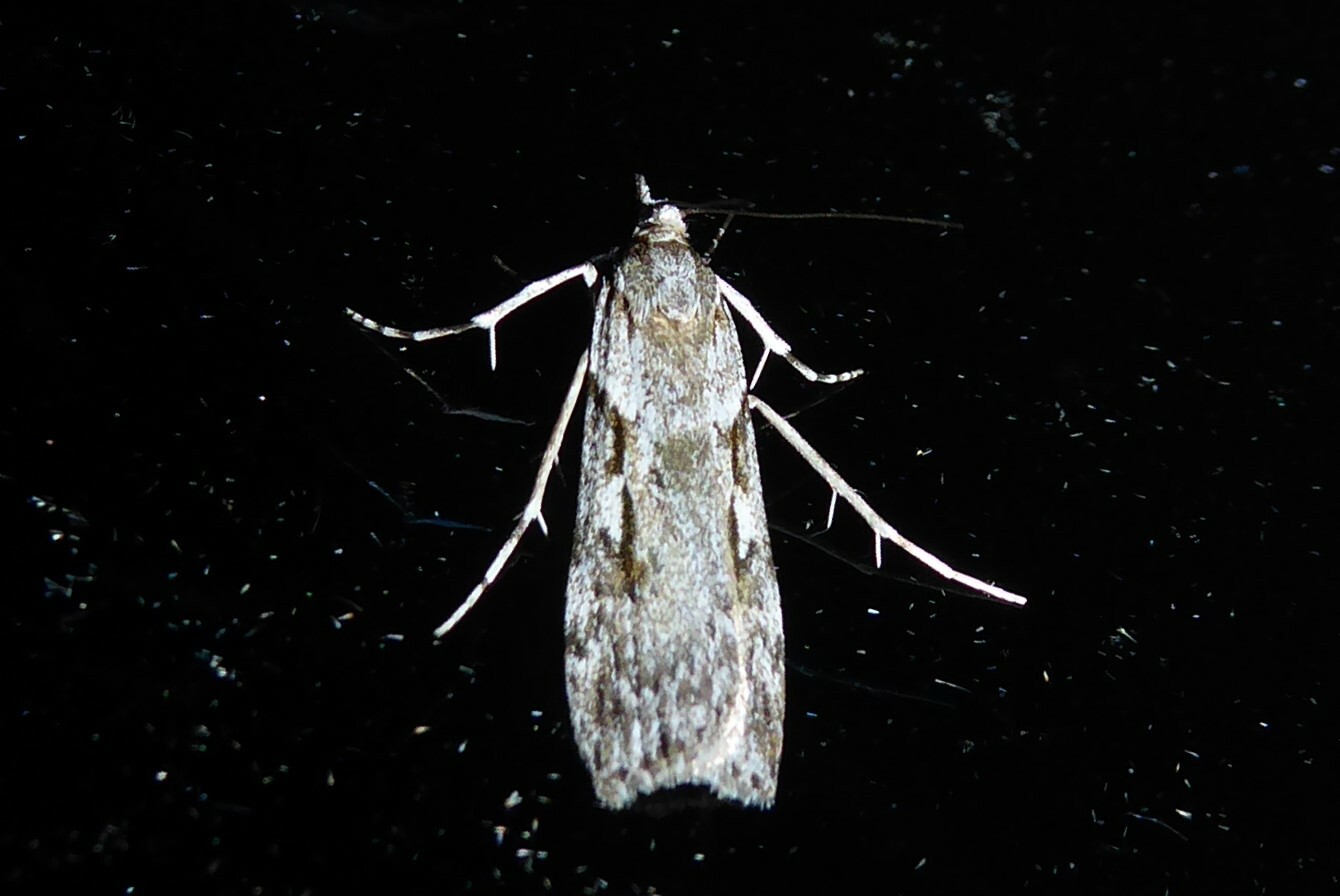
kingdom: Animalia
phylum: Arthropoda
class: Insecta
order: Lepidoptera
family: Crambidae
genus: Scoparia
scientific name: Scoparia halopis
